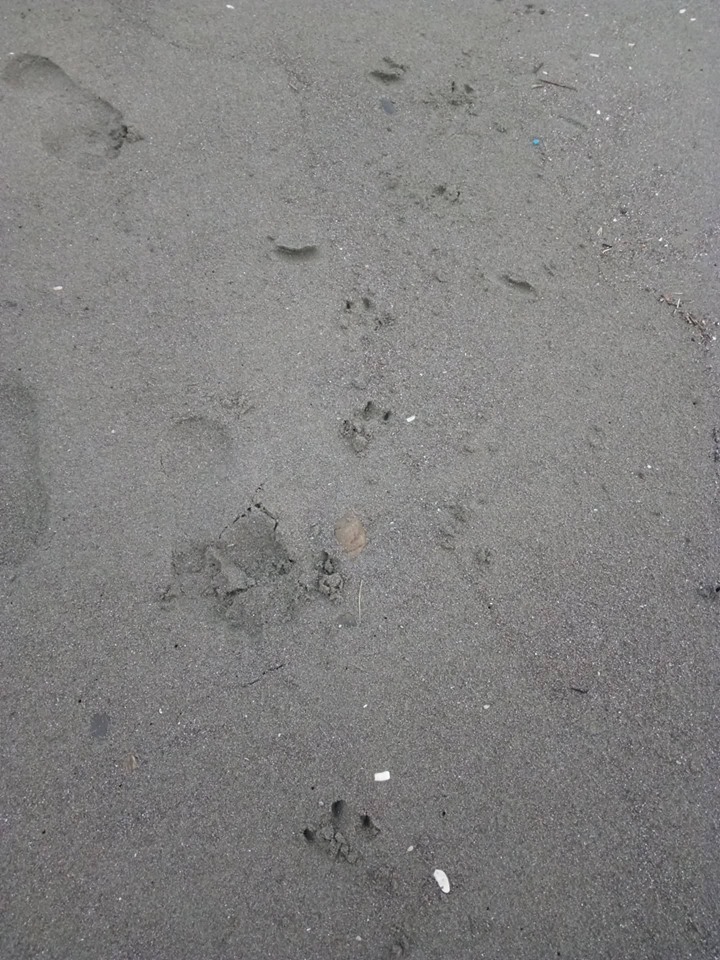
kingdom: Animalia
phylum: Chordata
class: Aves
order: Sphenisciformes
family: Spheniscidae
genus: Eudyptula
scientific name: Eudyptula minor
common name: Little penguin
